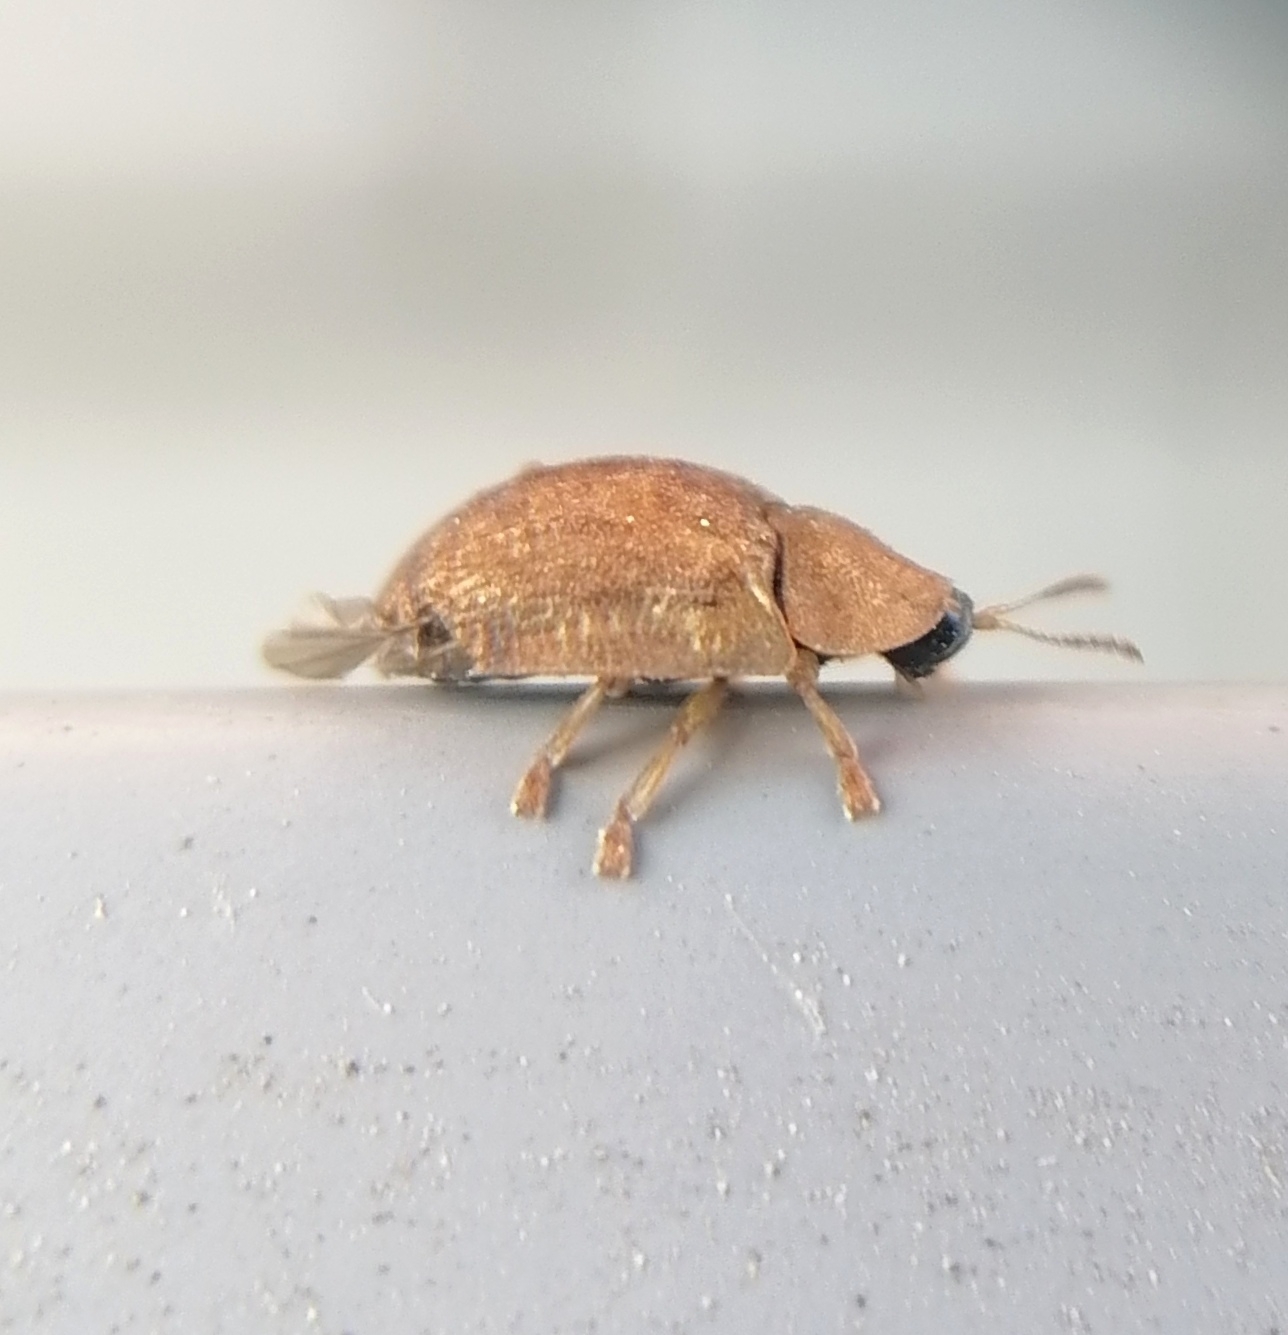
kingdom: Animalia
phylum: Arthropoda
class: Insecta
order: Coleoptera
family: Chrysomelidae
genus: Hypocassida
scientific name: Hypocassida subferruginea
